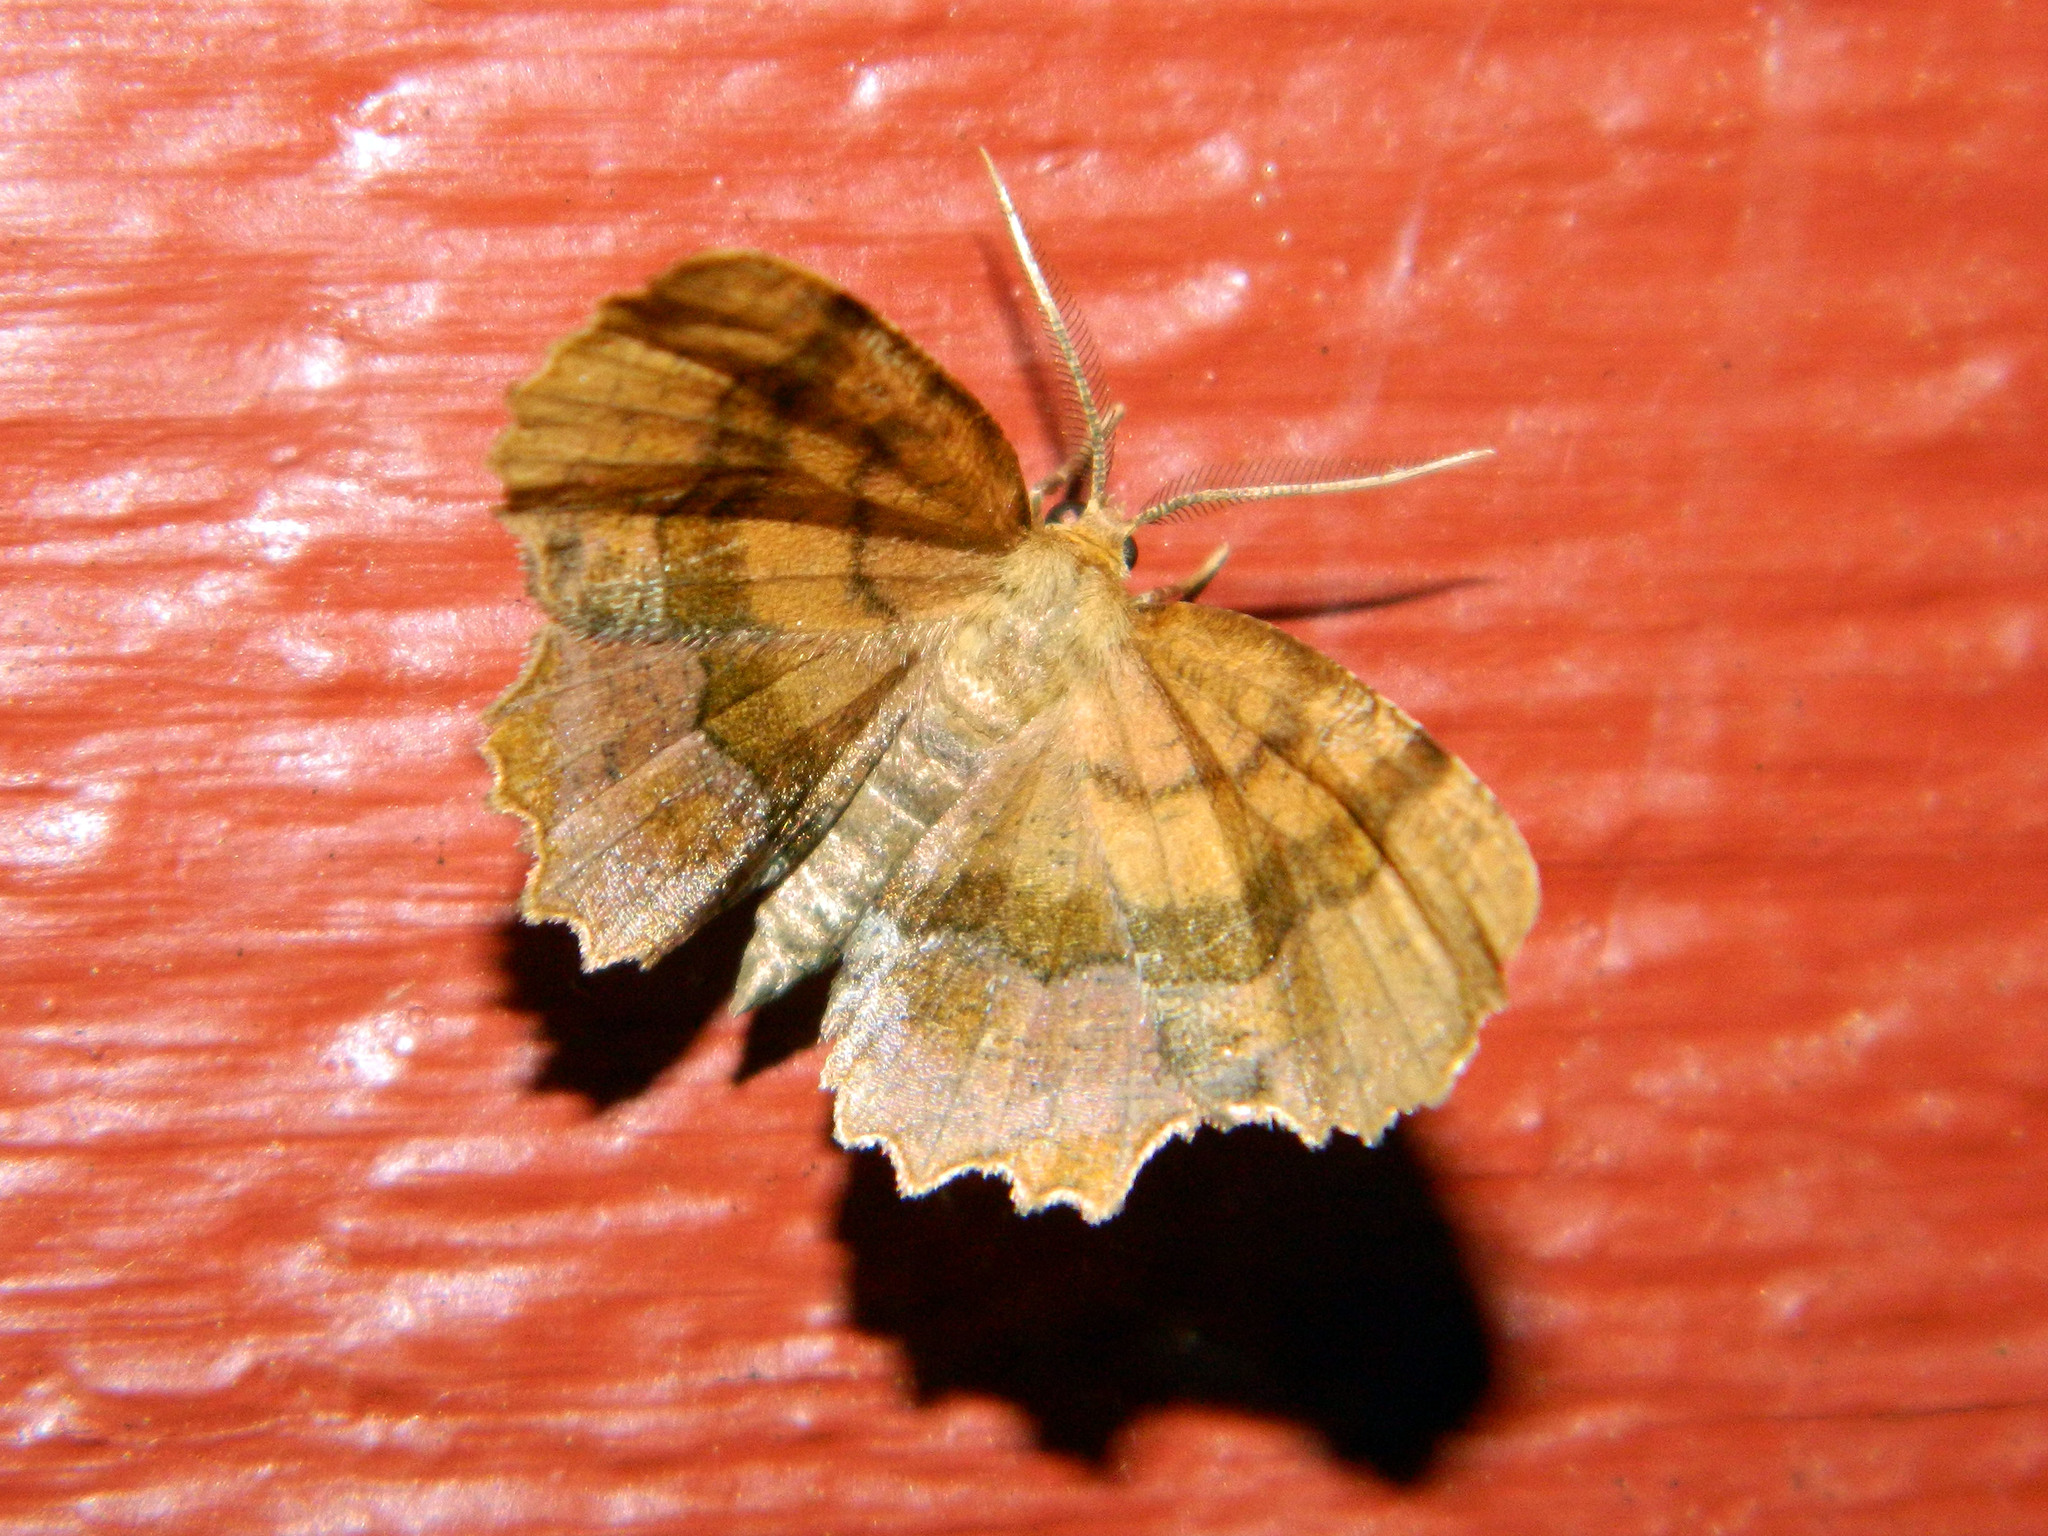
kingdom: Animalia
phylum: Arthropoda
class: Insecta
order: Lepidoptera
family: Geometridae
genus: Cepphis
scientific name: Cepphis armataria
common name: Scallop moth
